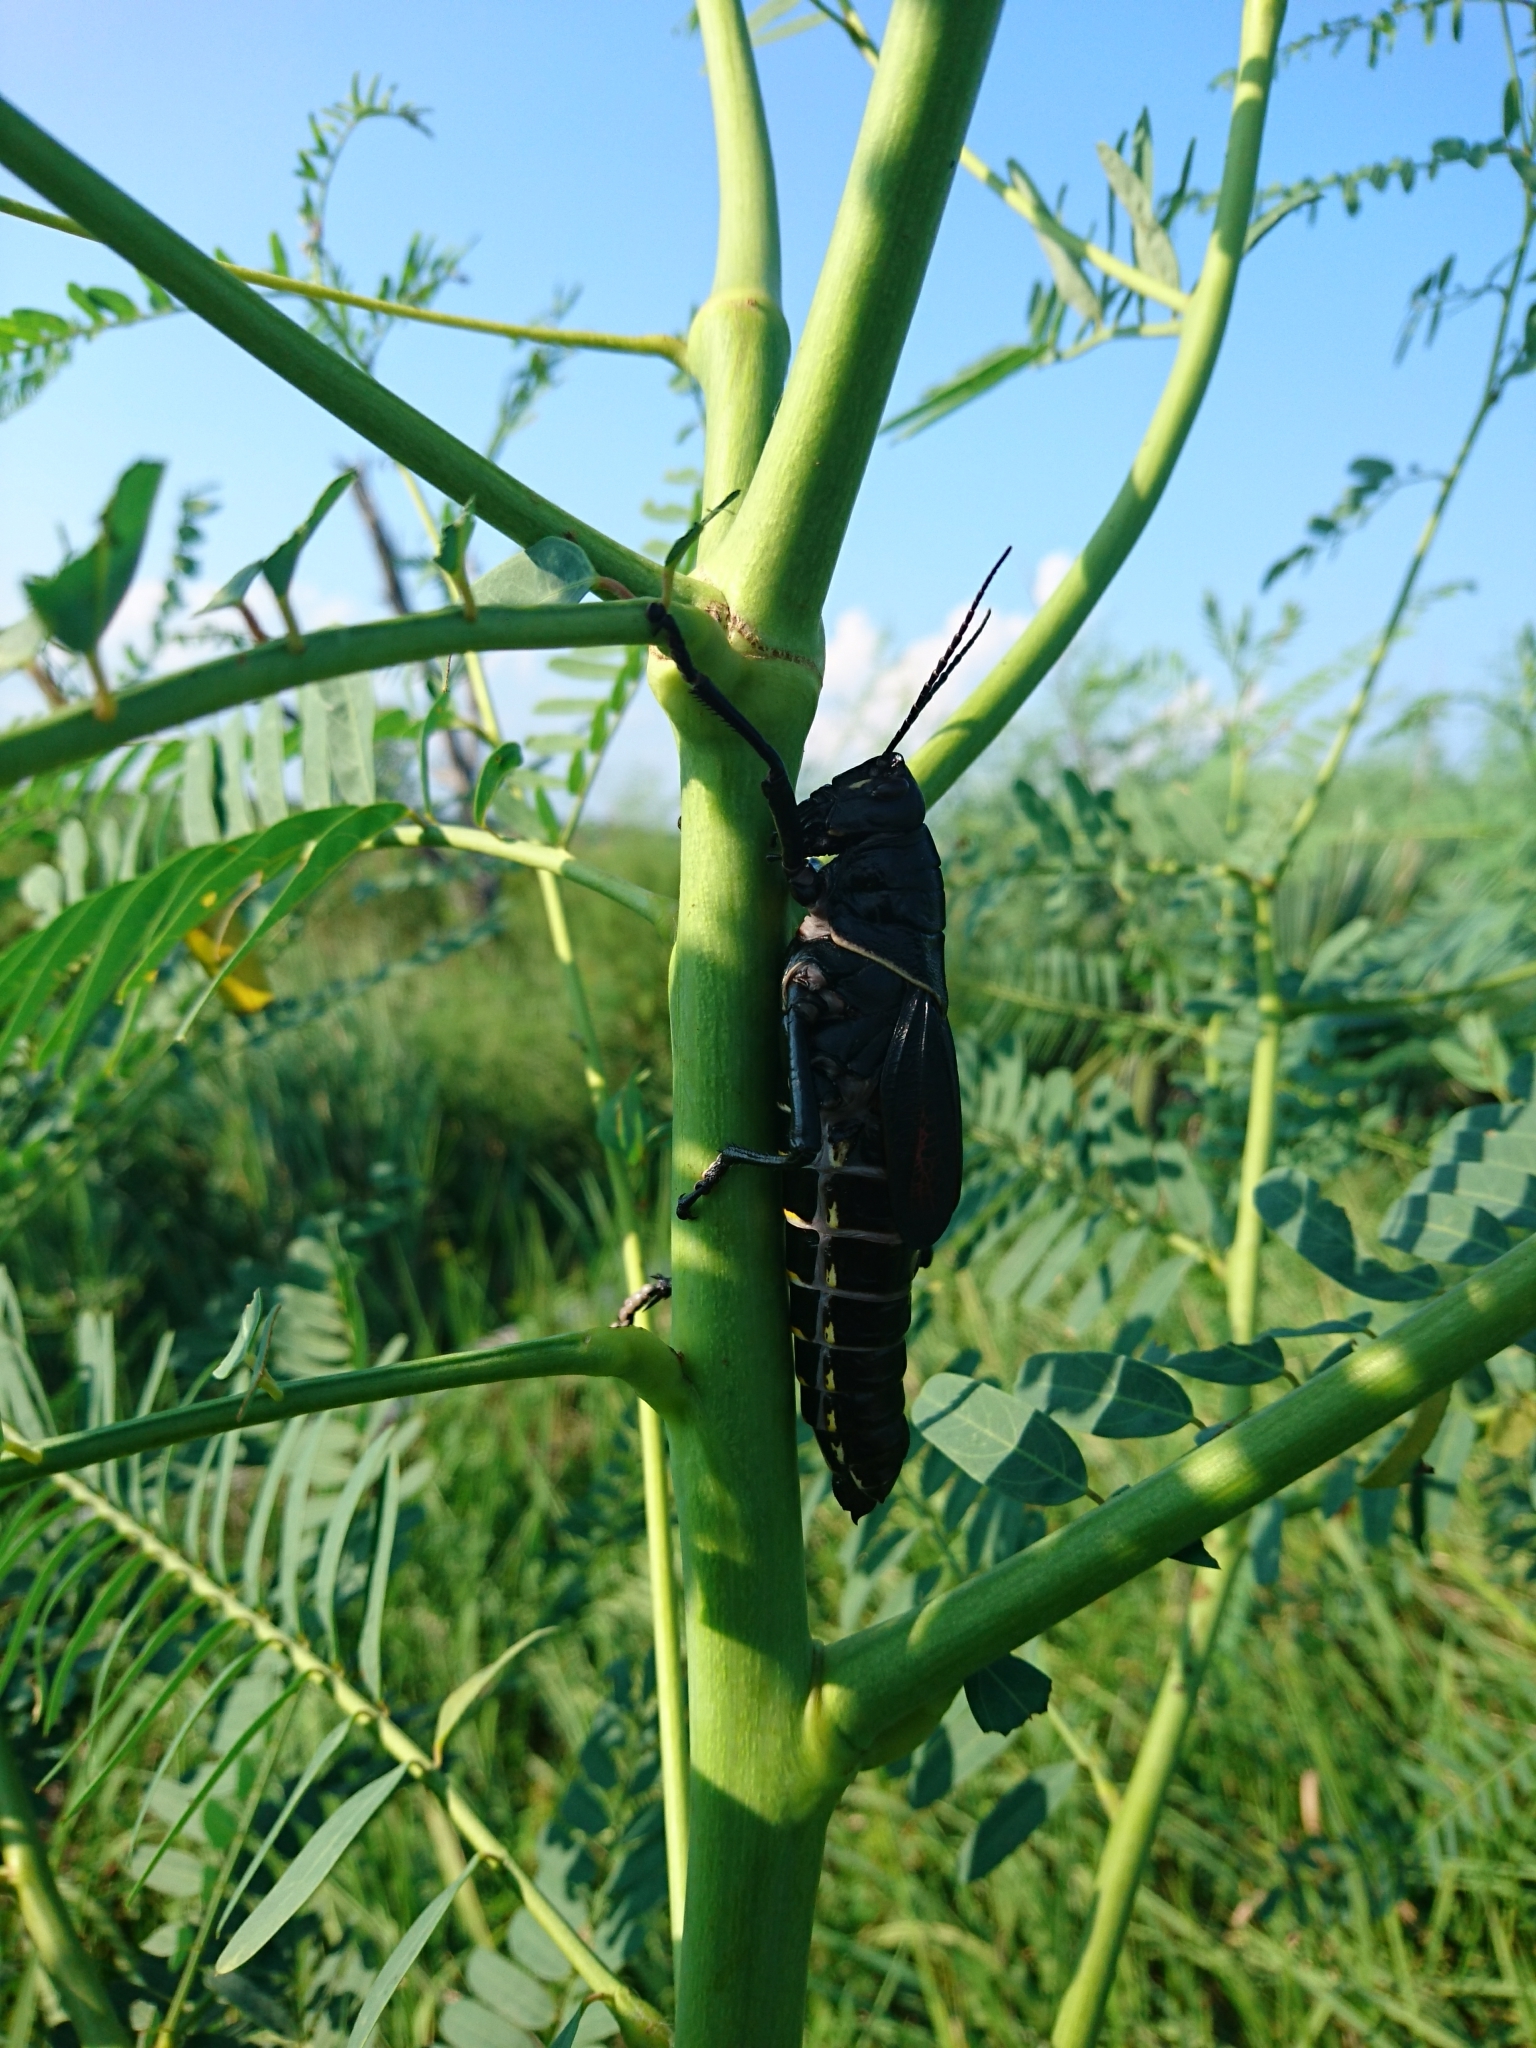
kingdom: Animalia
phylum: Arthropoda
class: Insecta
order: Orthoptera
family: Romaleidae
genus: Romalea
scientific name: Romalea microptera
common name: Eastern lubber grasshopper
